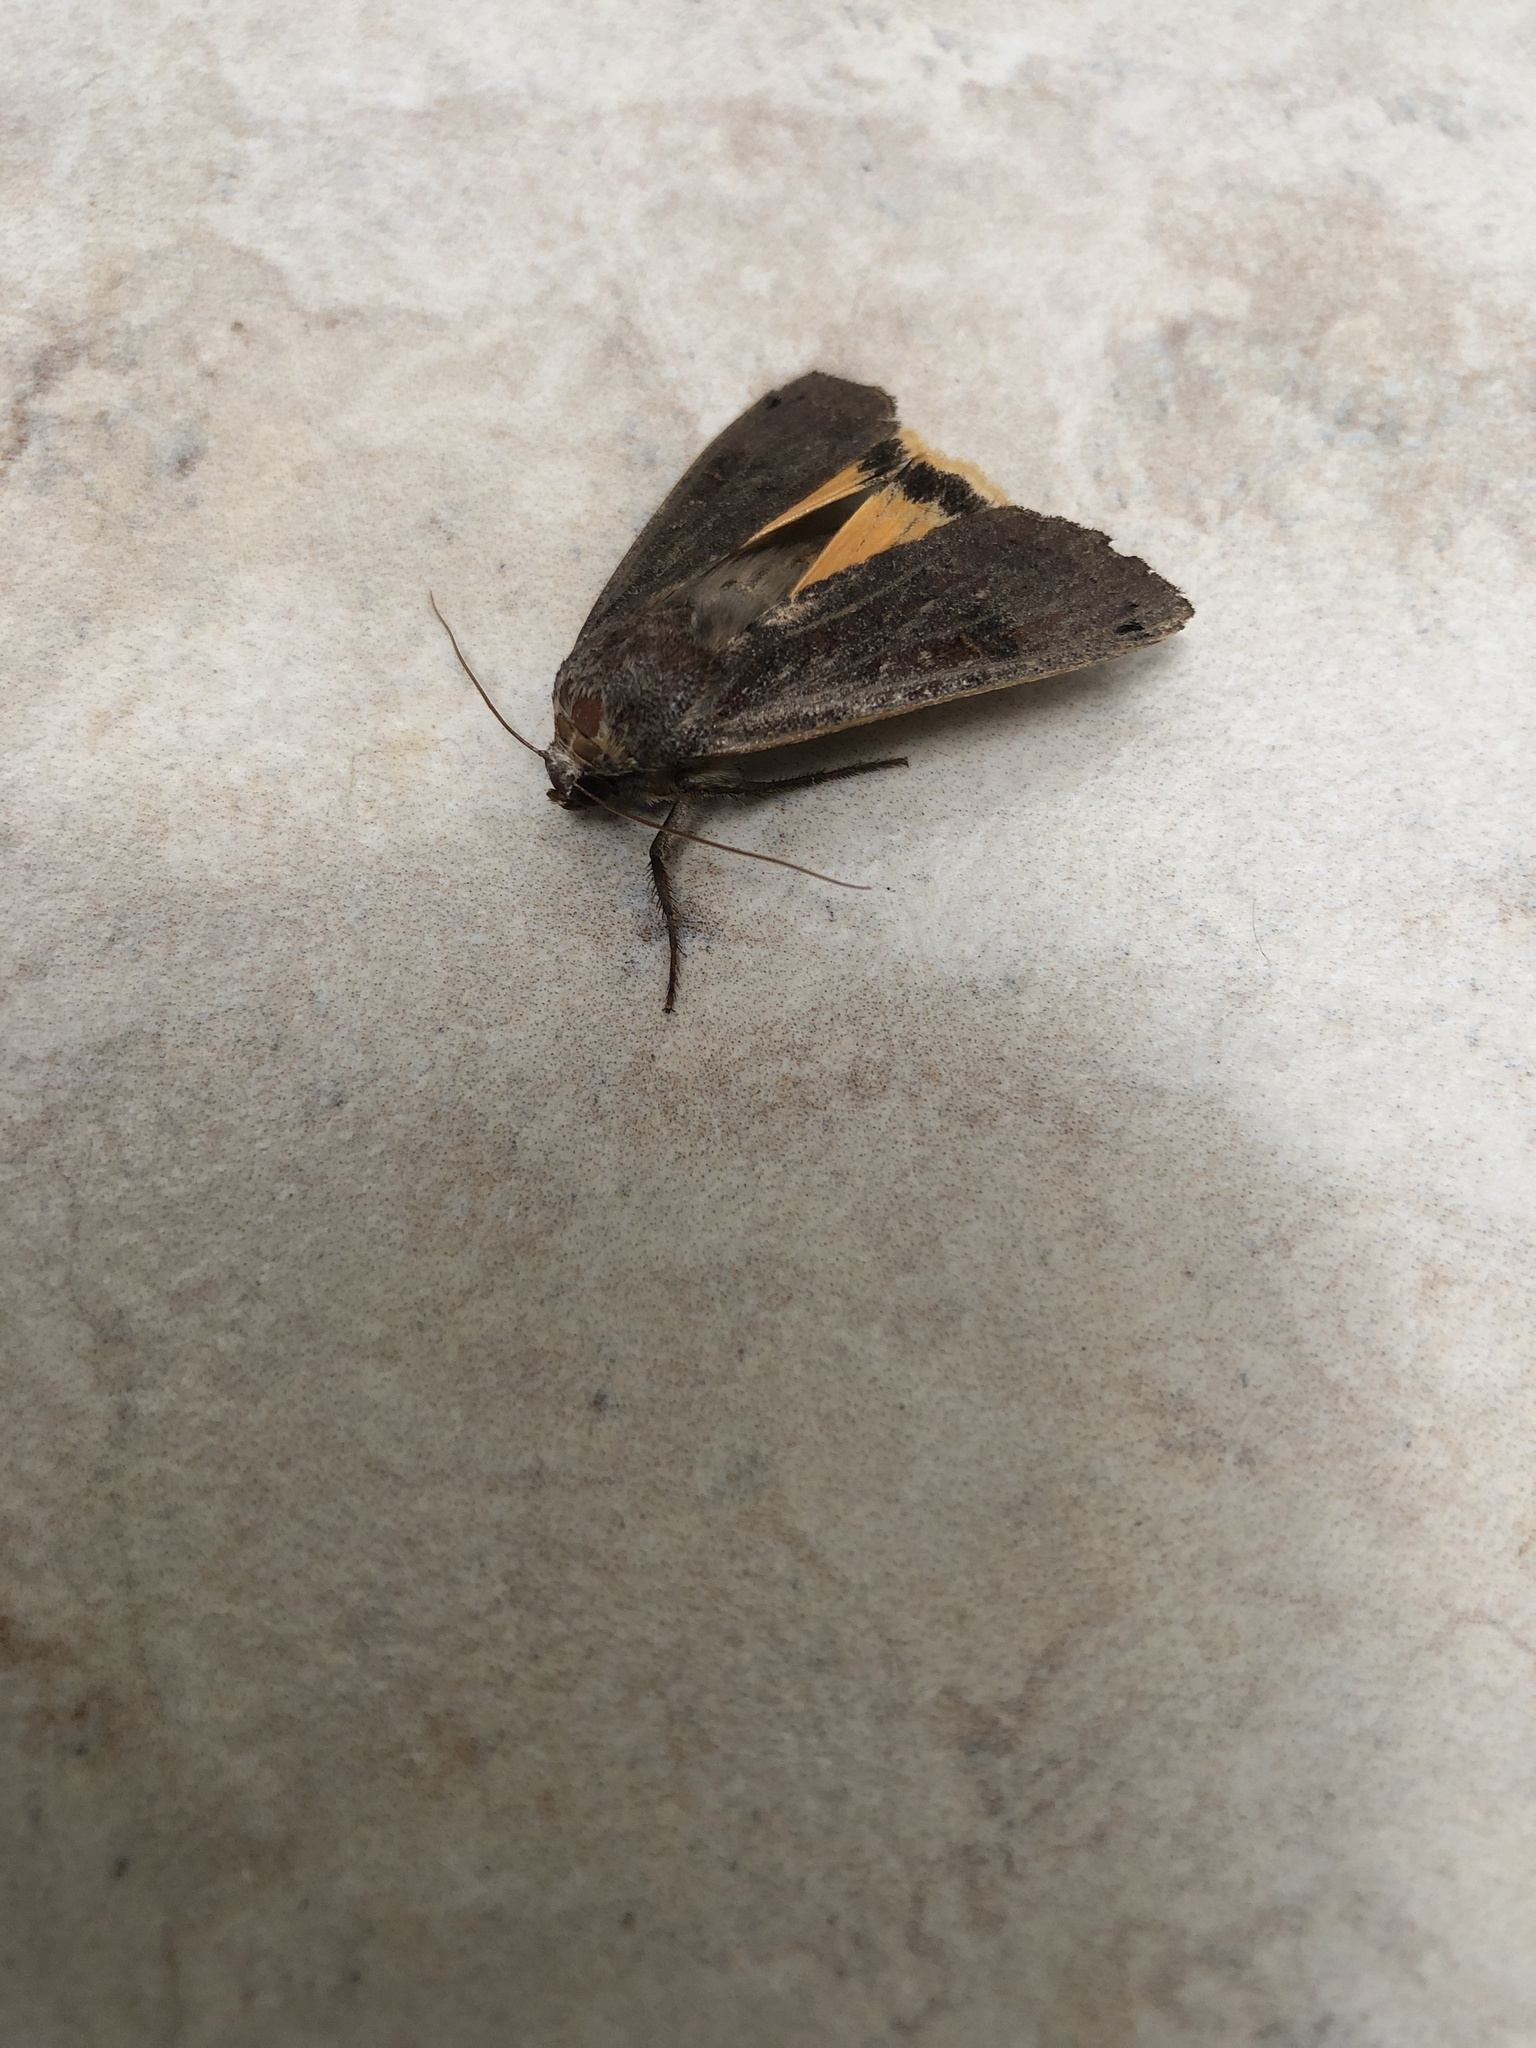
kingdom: Animalia
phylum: Arthropoda
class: Insecta
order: Lepidoptera
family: Noctuidae
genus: Noctua
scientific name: Noctua pronuba
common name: Large yellow underwing
